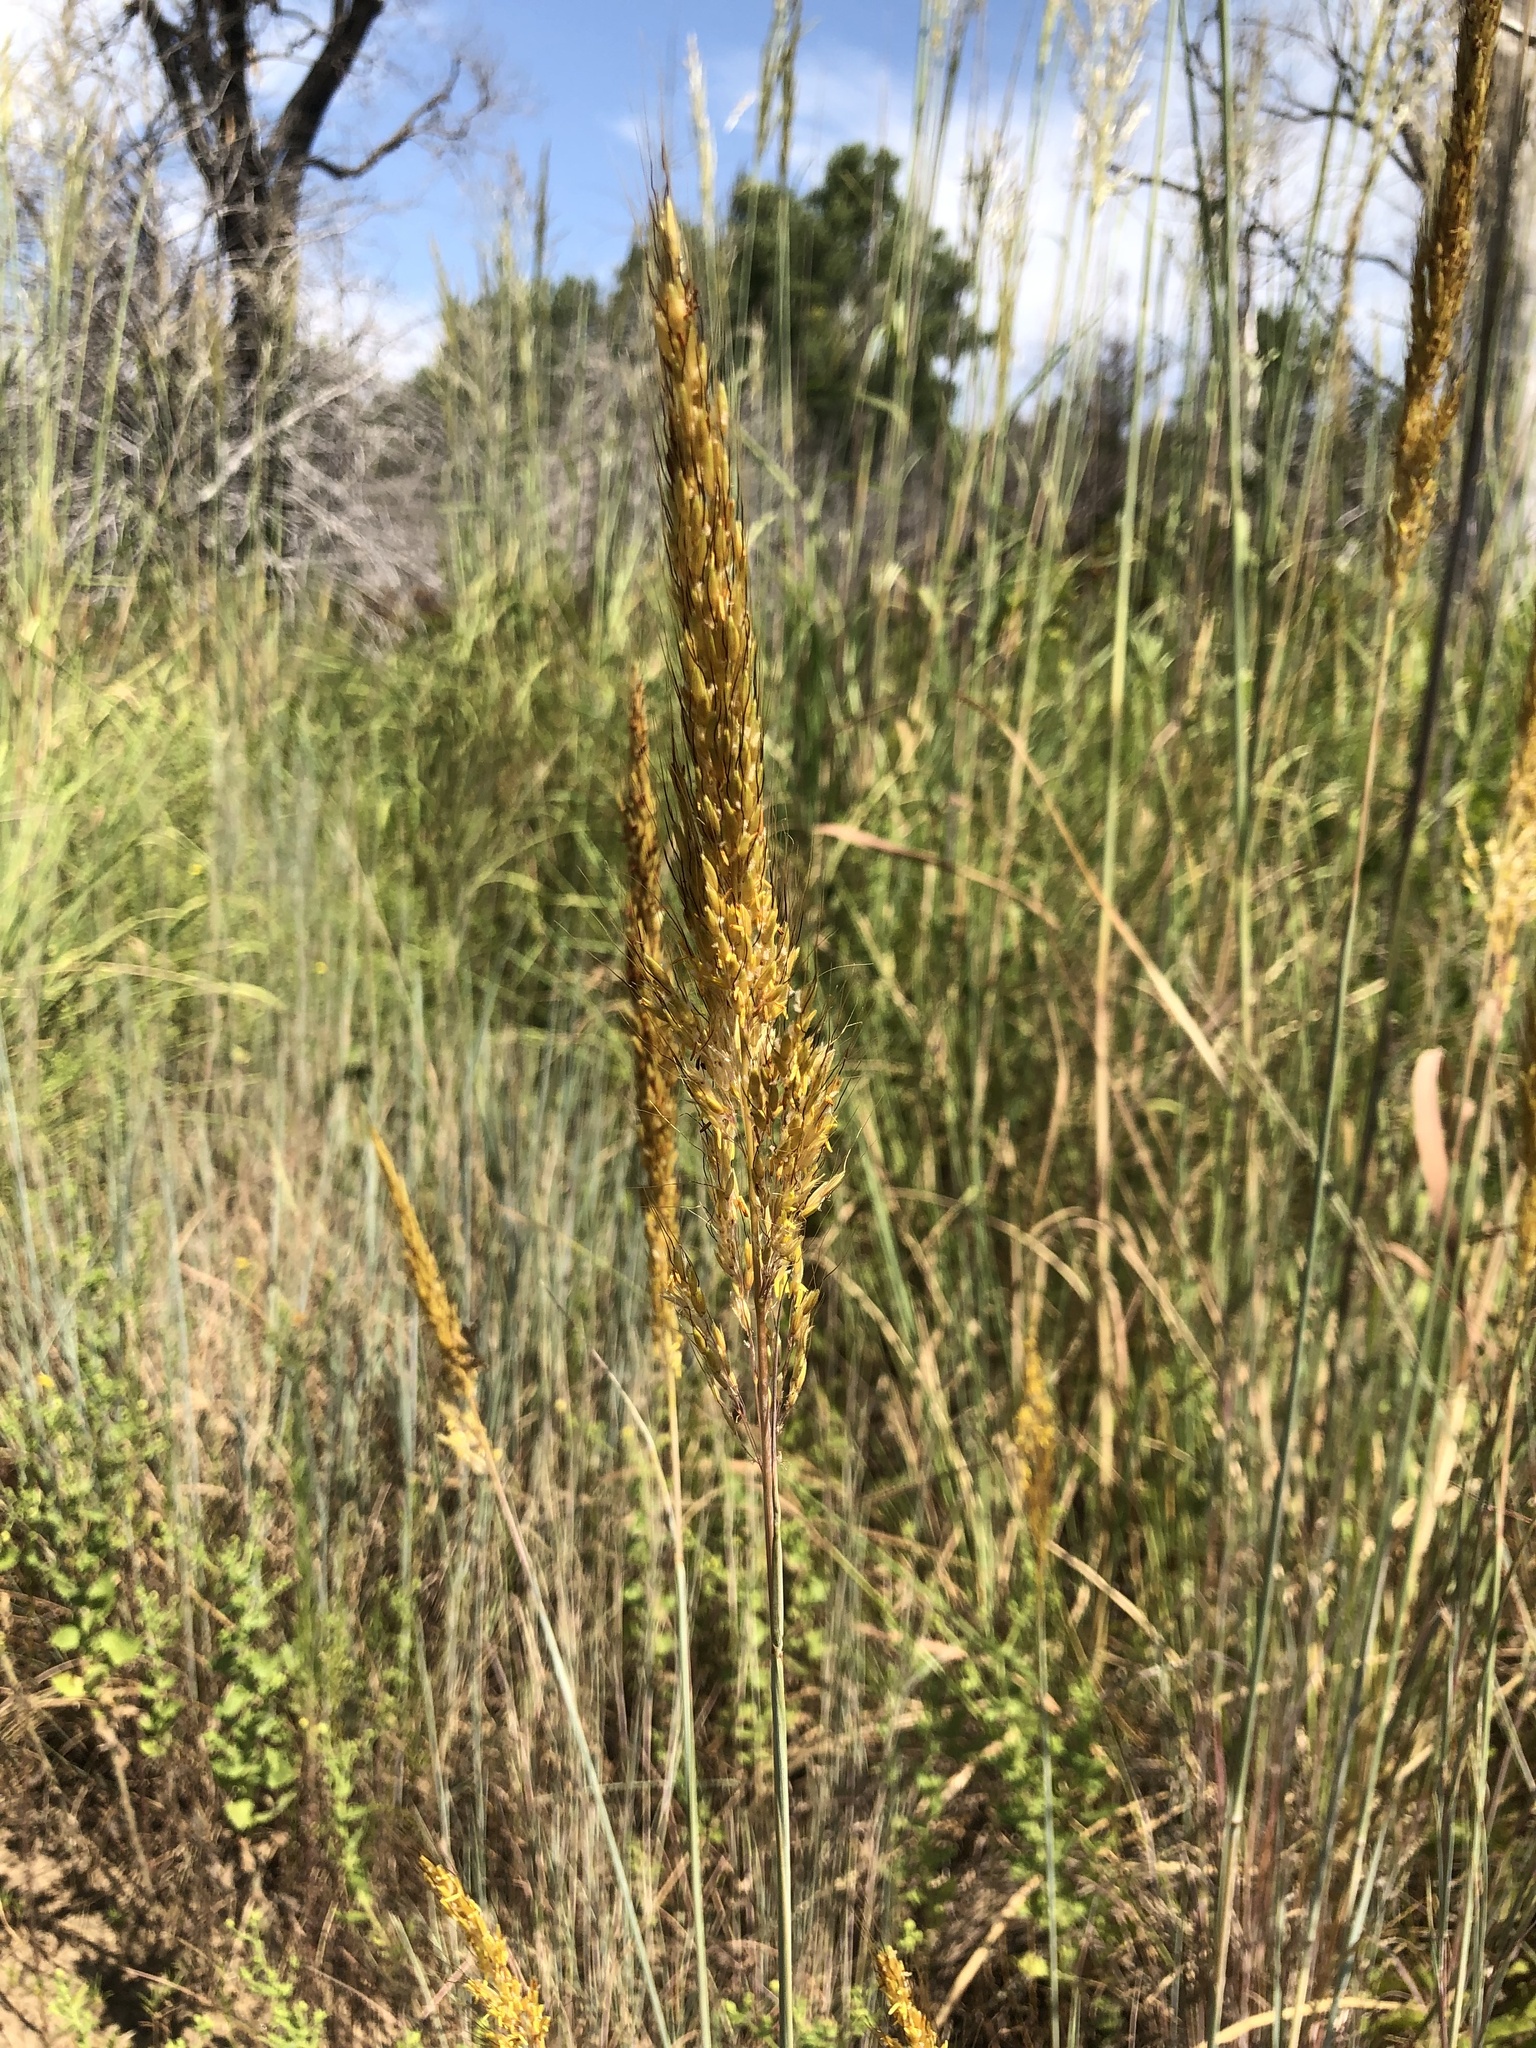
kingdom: Plantae
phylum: Tracheophyta
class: Liliopsida
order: Poales
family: Poaceae
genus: Sorghastrum
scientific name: Sorghastrum nutans
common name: Indian grass
